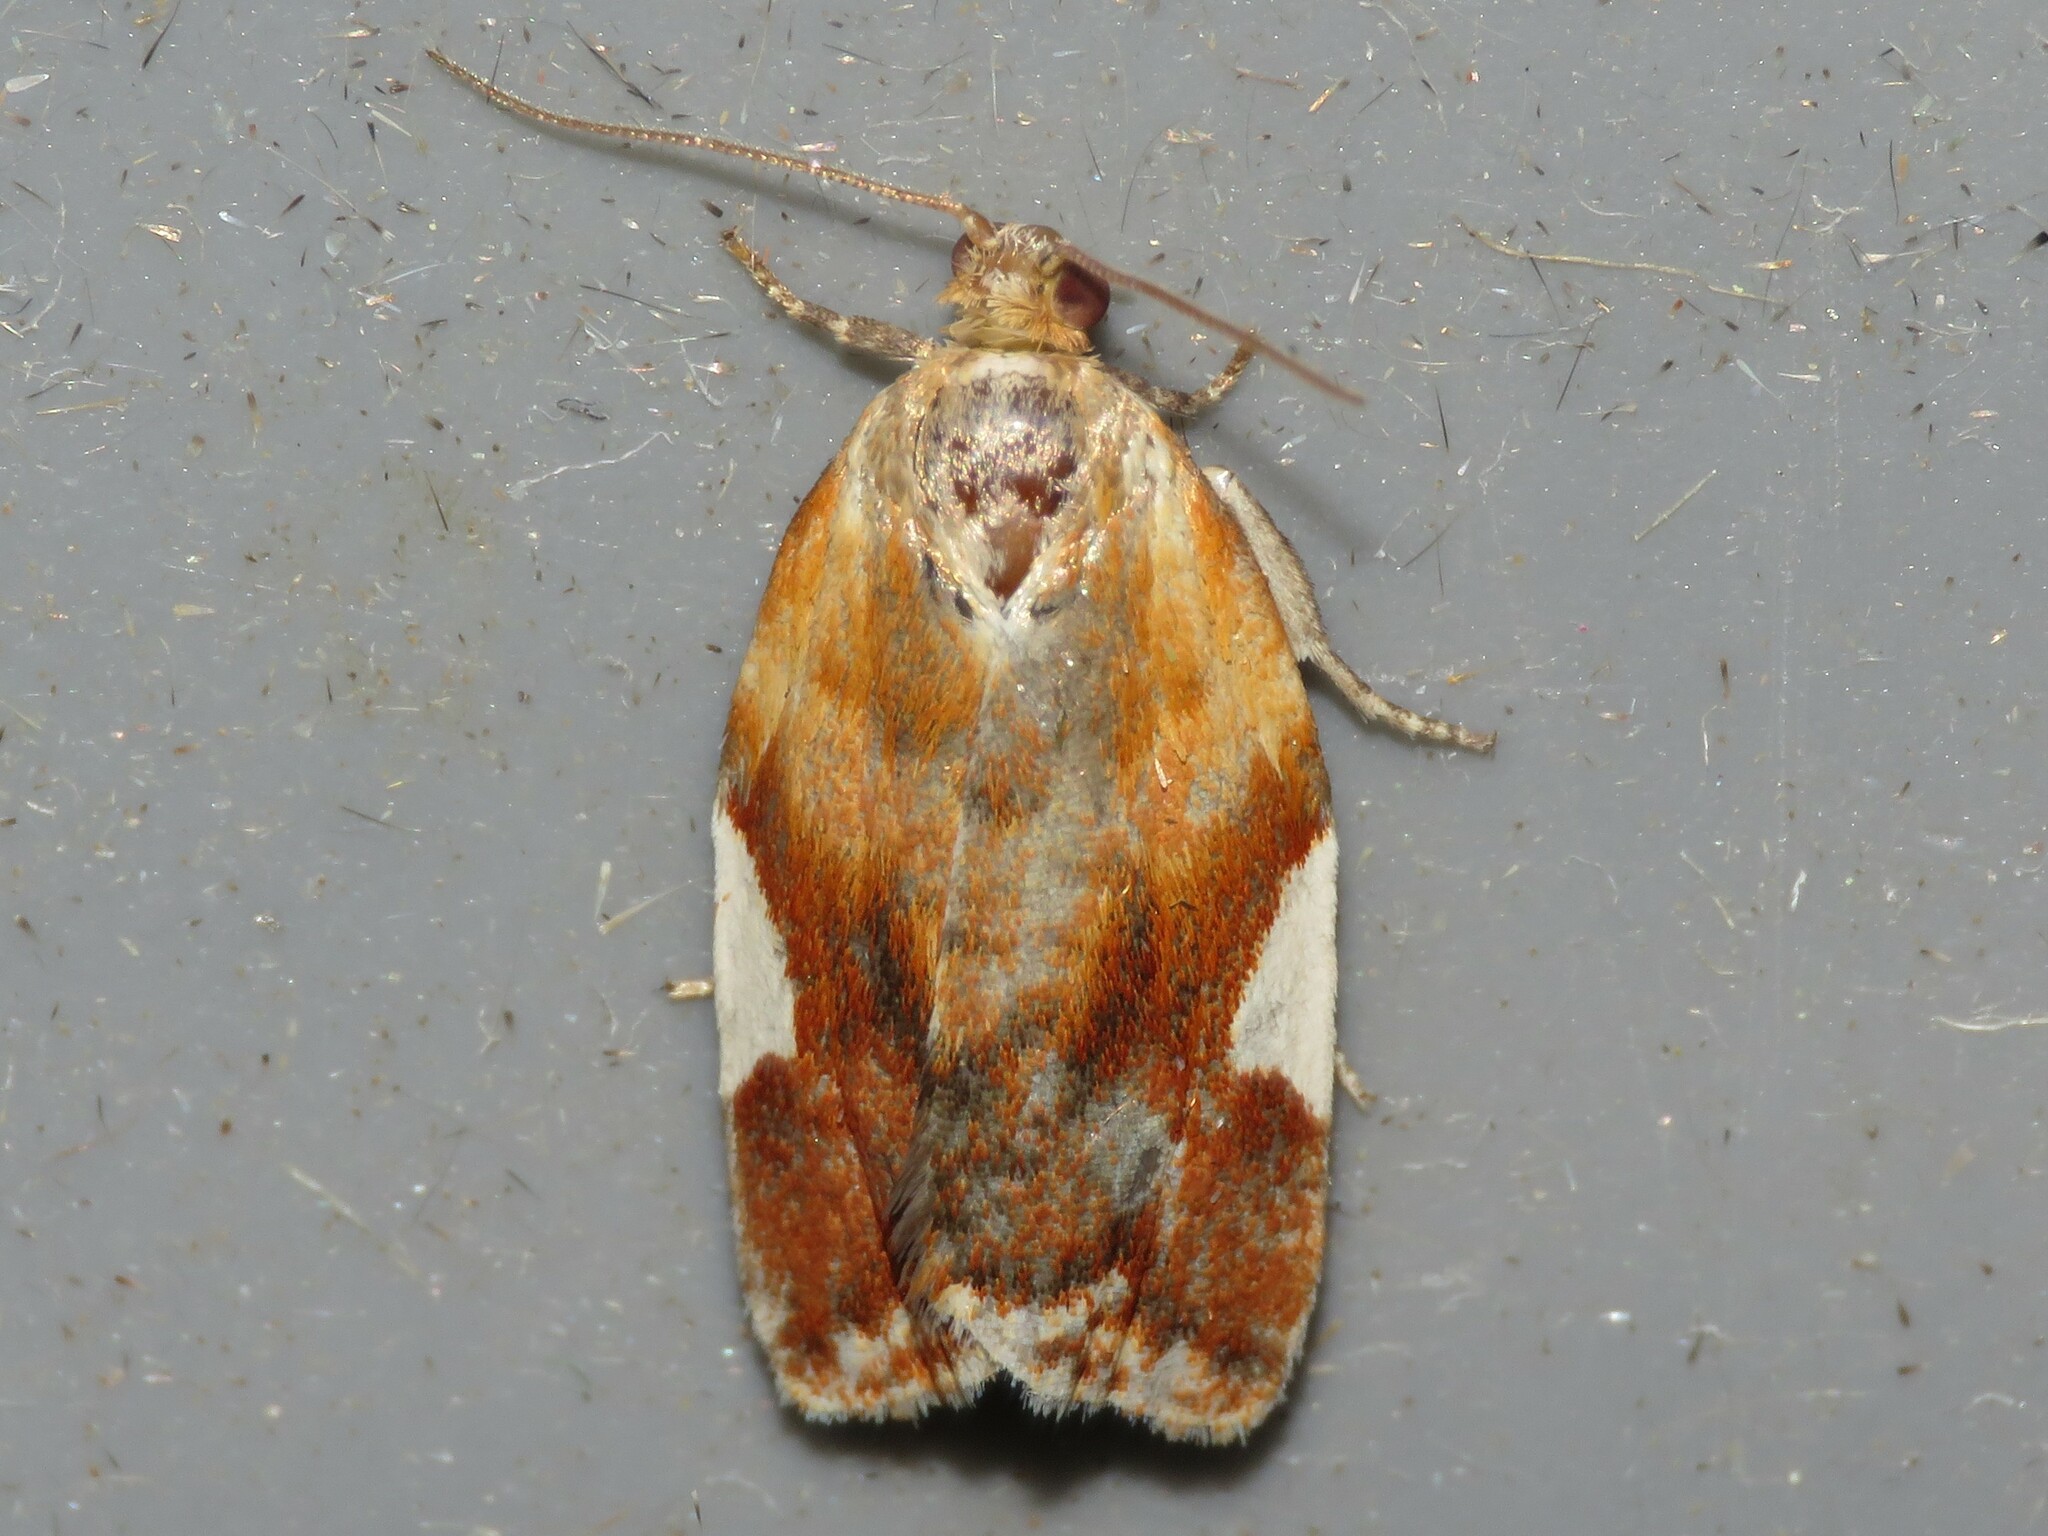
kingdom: Animalia
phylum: Arthropoda
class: Insecta
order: Lepidoptera
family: Tortricidae
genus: Clepsis
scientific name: Clepsis persicana
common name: White triangle tortrix
